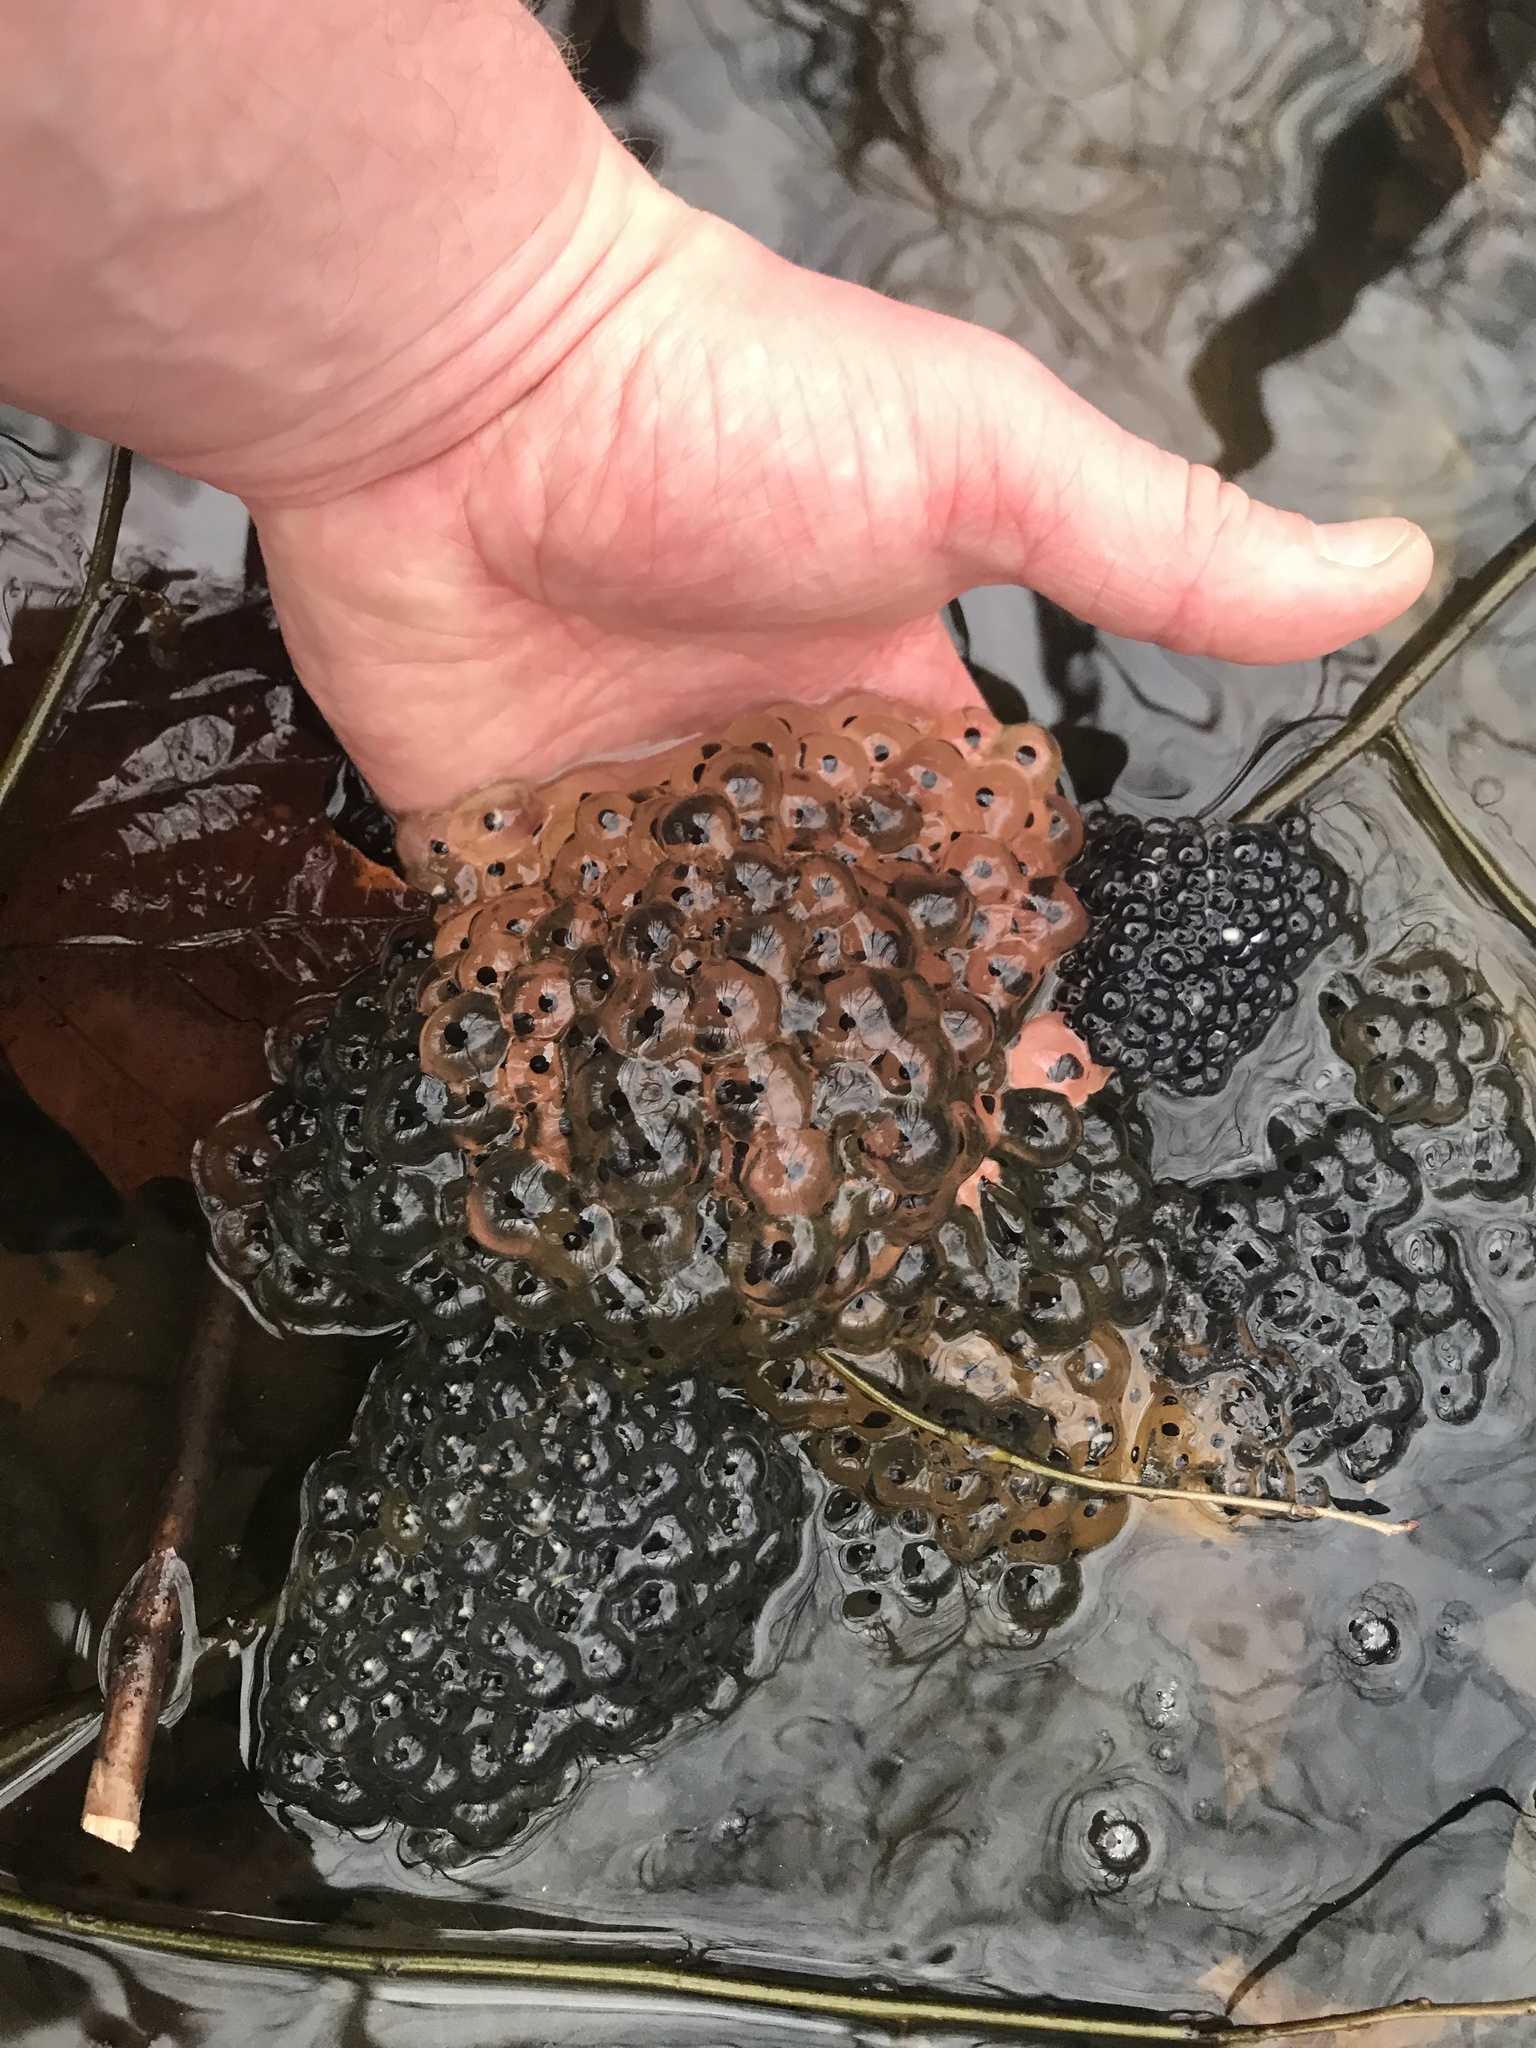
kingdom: Animalia
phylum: Chordata
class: Amphibia
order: Anura
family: Ranidae
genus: Lithobates
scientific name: Lithobates sylvaticus
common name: Wood frog
